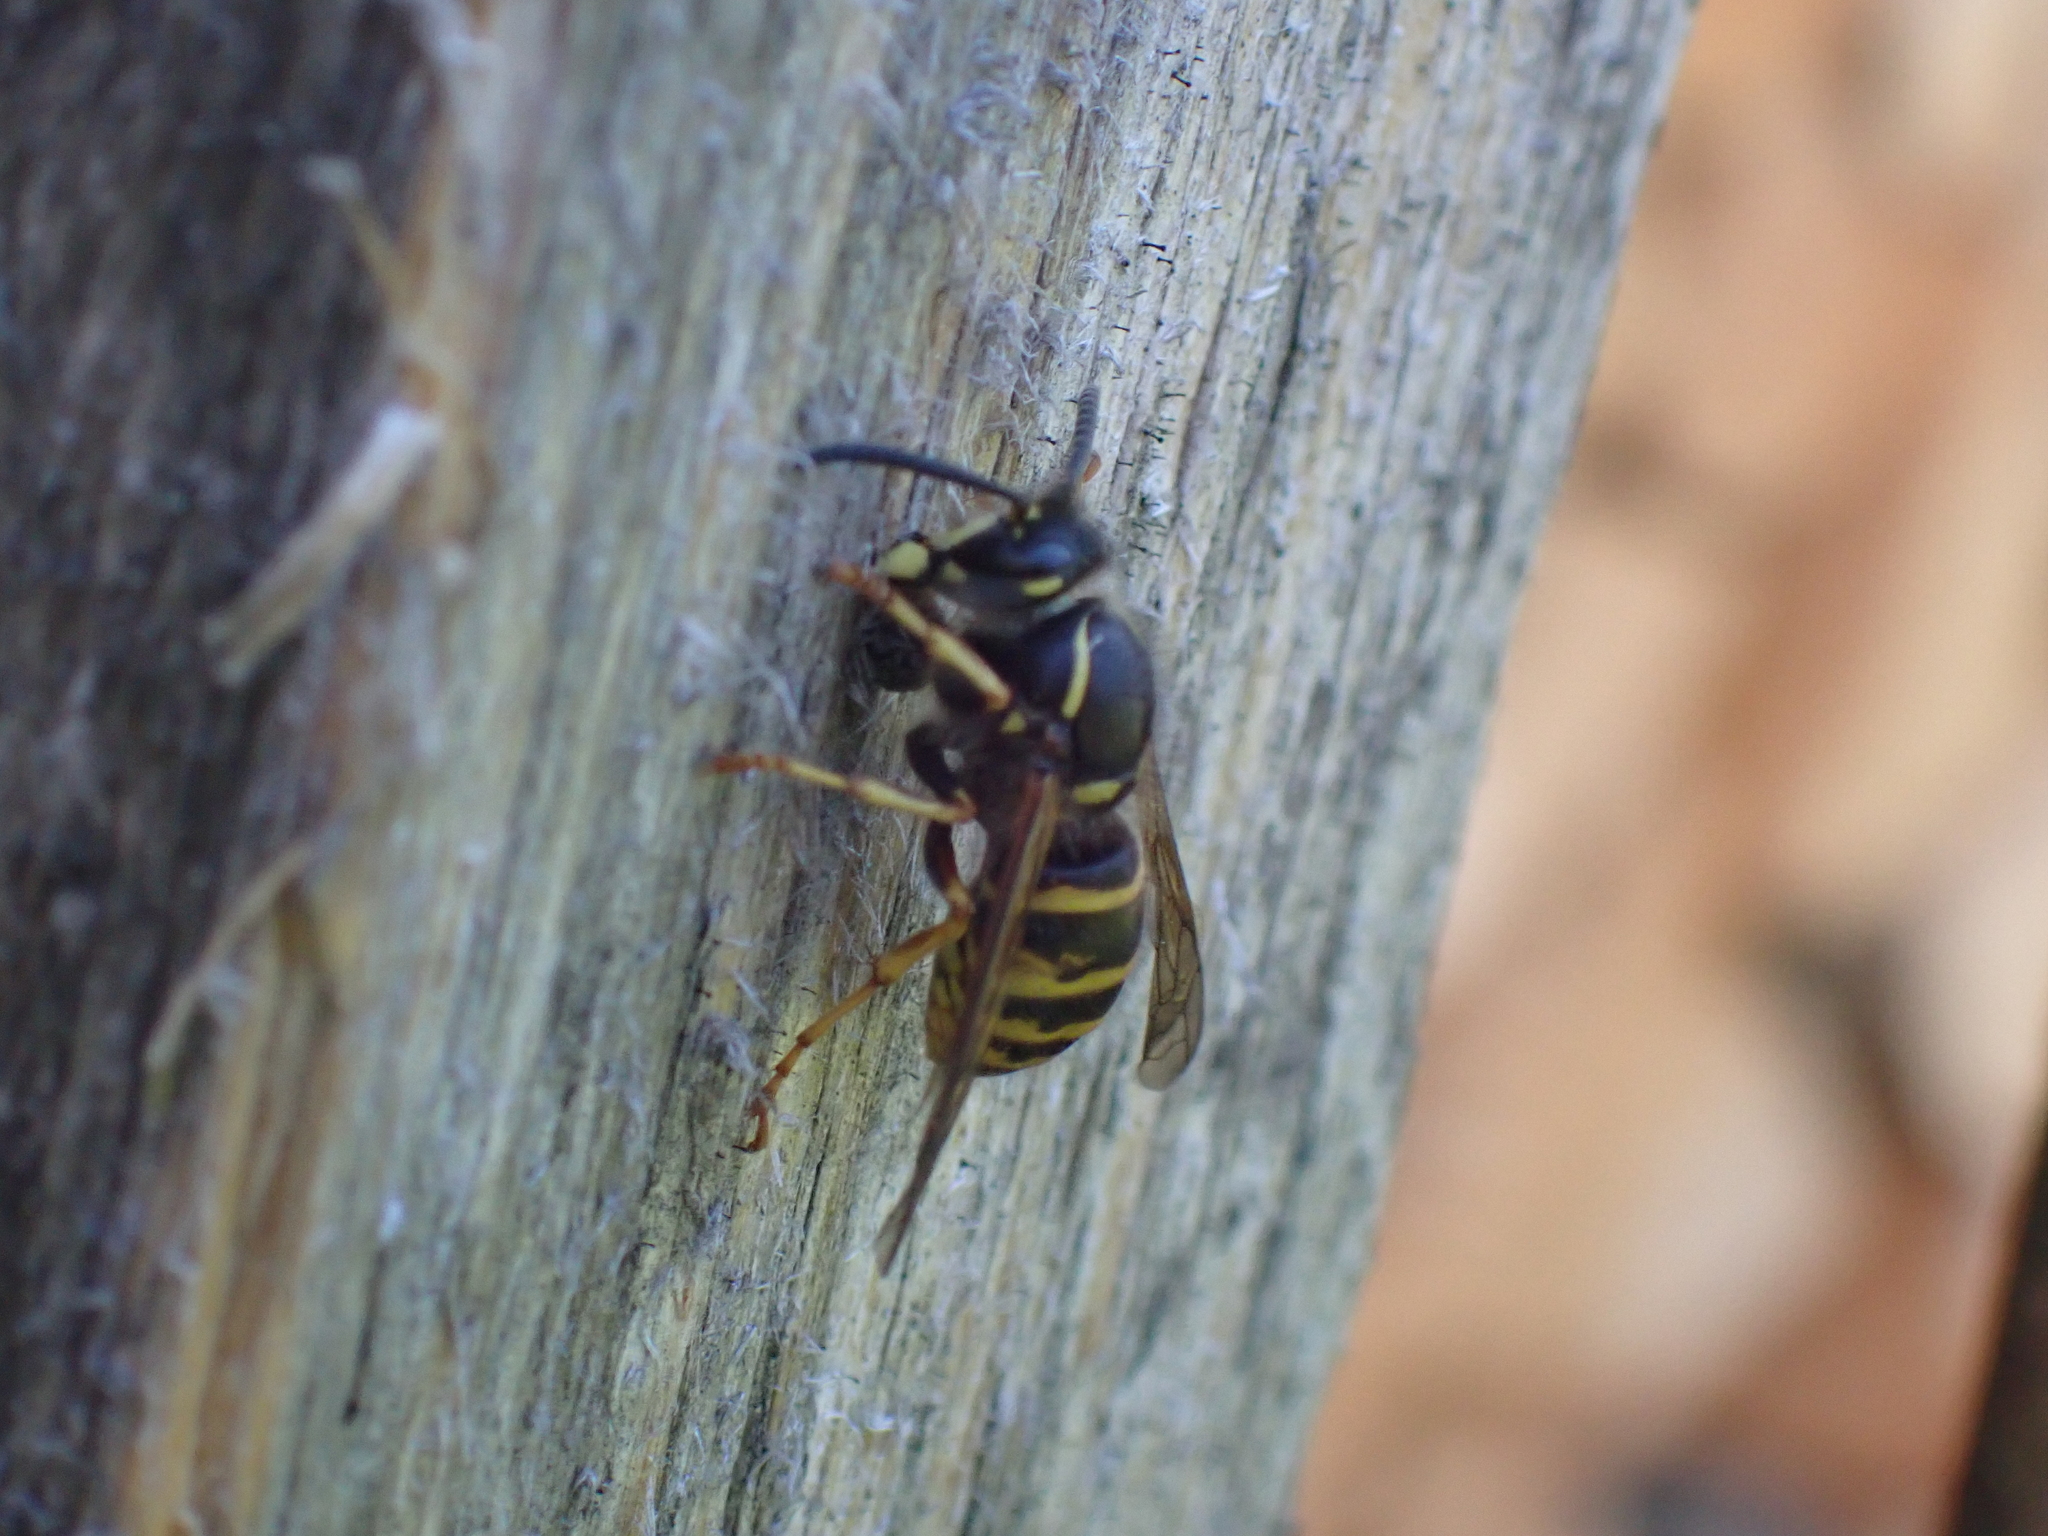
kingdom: Animalia
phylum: Arthropoda
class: Insecta
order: Hymenoptera
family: Vespidae
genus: Dolichovespula
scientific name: Dolichovespula saxonica
